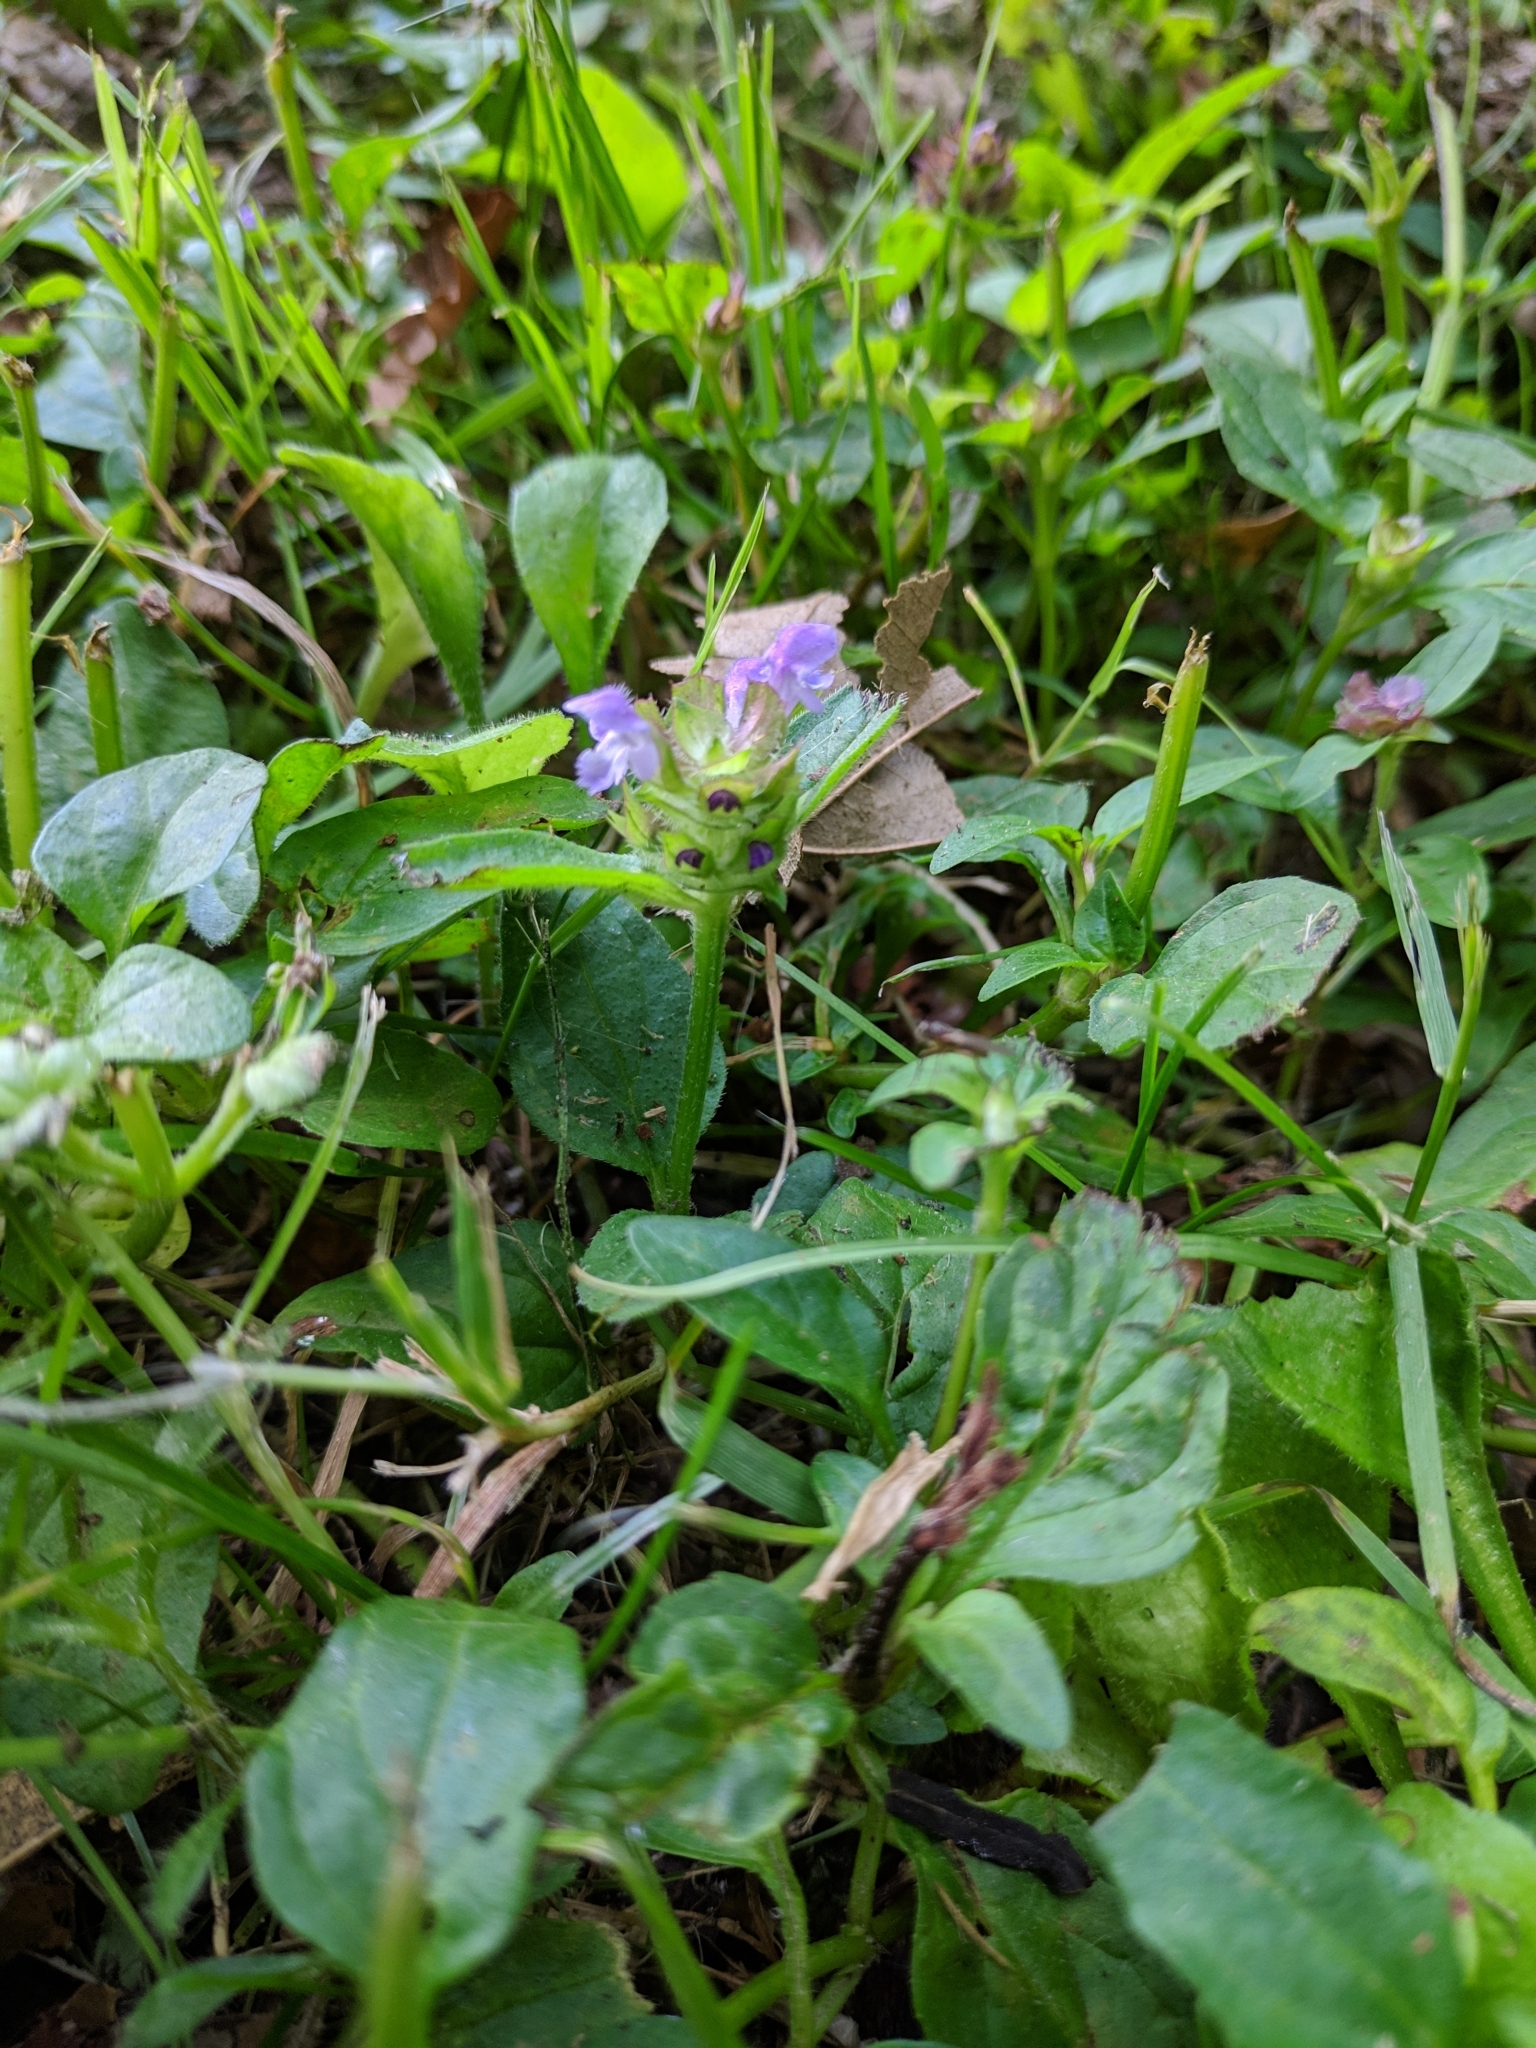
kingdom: Plantae
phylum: Tracheophyta
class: Magnoliopsida
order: Lamiales
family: Lamiaceae
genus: Prunella
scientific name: Prunella vulgaris
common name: Heal-all
